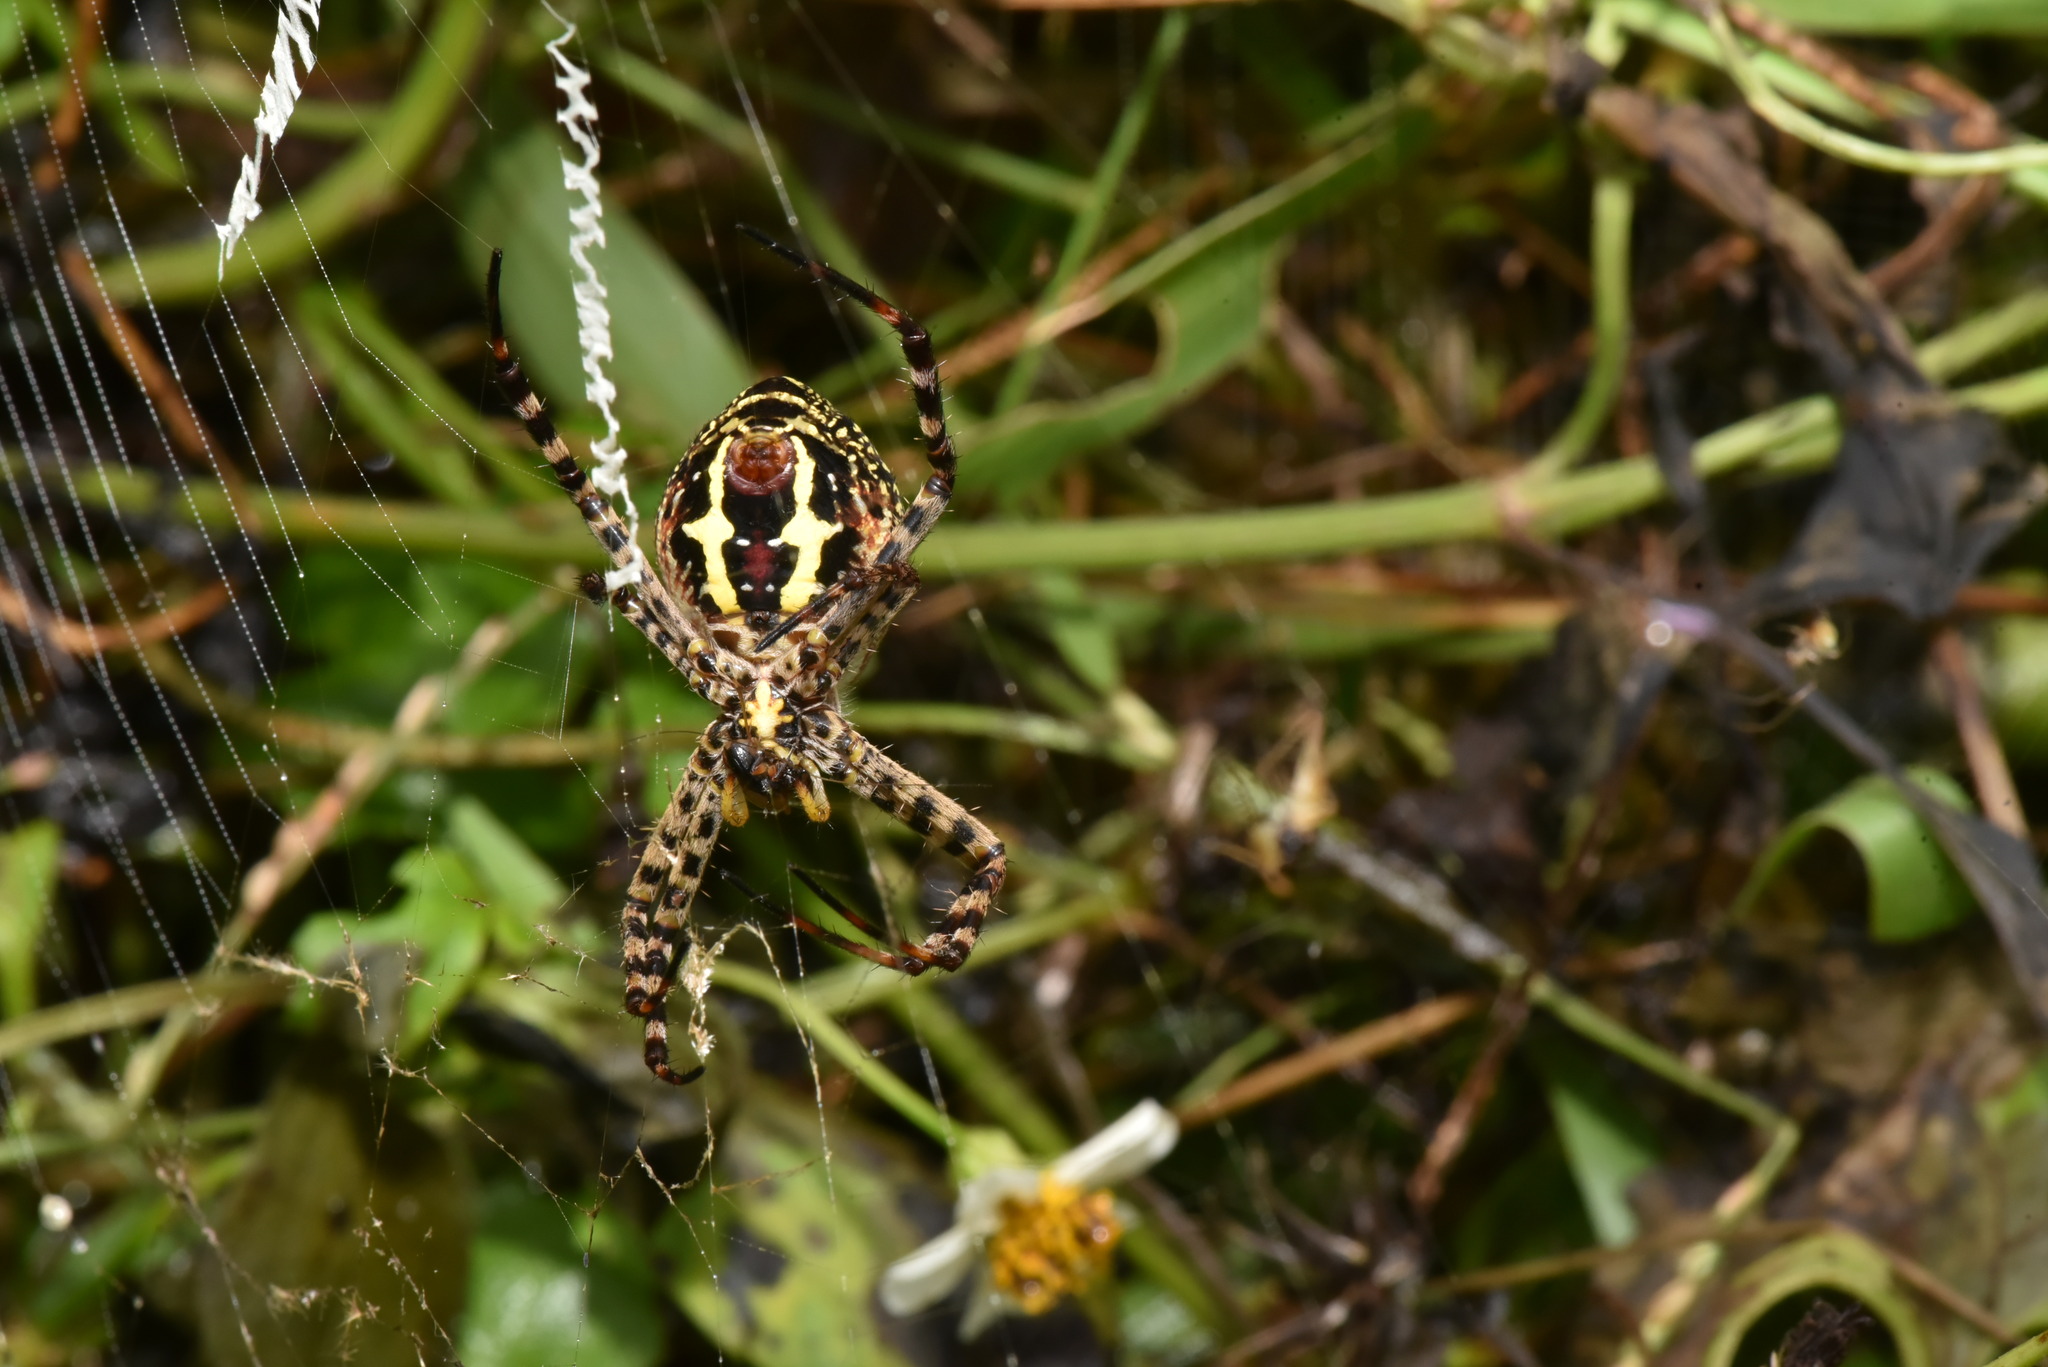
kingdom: Animalia
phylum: Arthropoda
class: Arachnida
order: Araneae
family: Araneidae
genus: Argiope
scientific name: Argiope aemula
